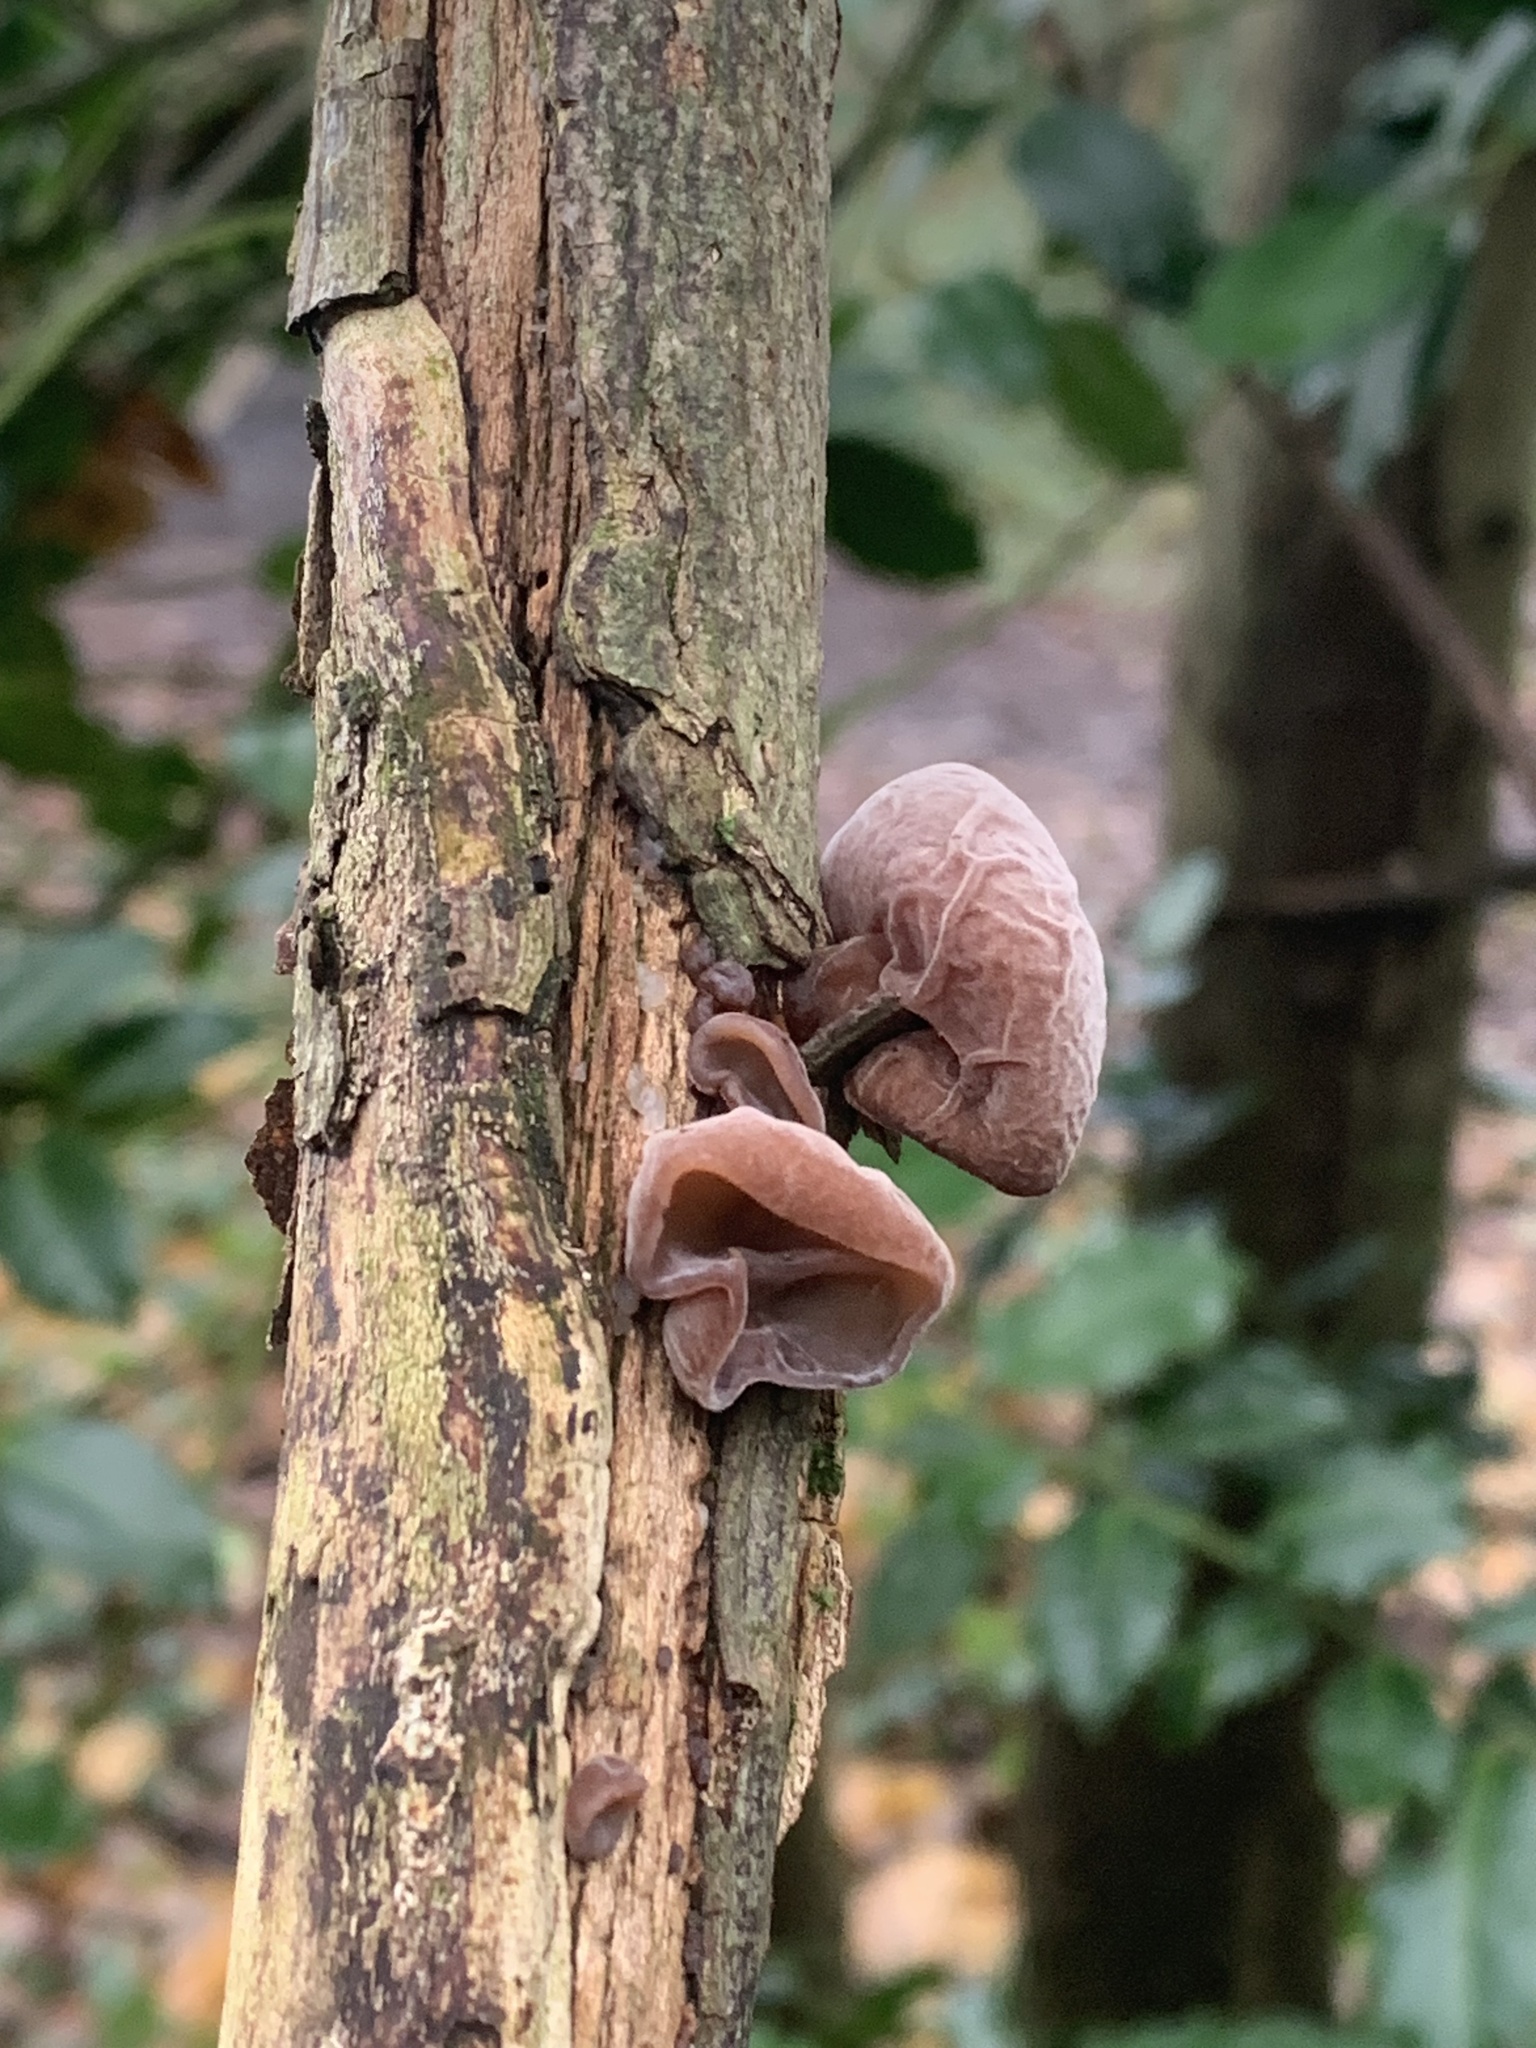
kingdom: Fungi
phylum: Basidiomycota
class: Agaricomycetes
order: Auriculariales
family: Auriculariaceae
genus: Auricularia
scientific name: Auricularia auricula-judae
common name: Jelly ear
